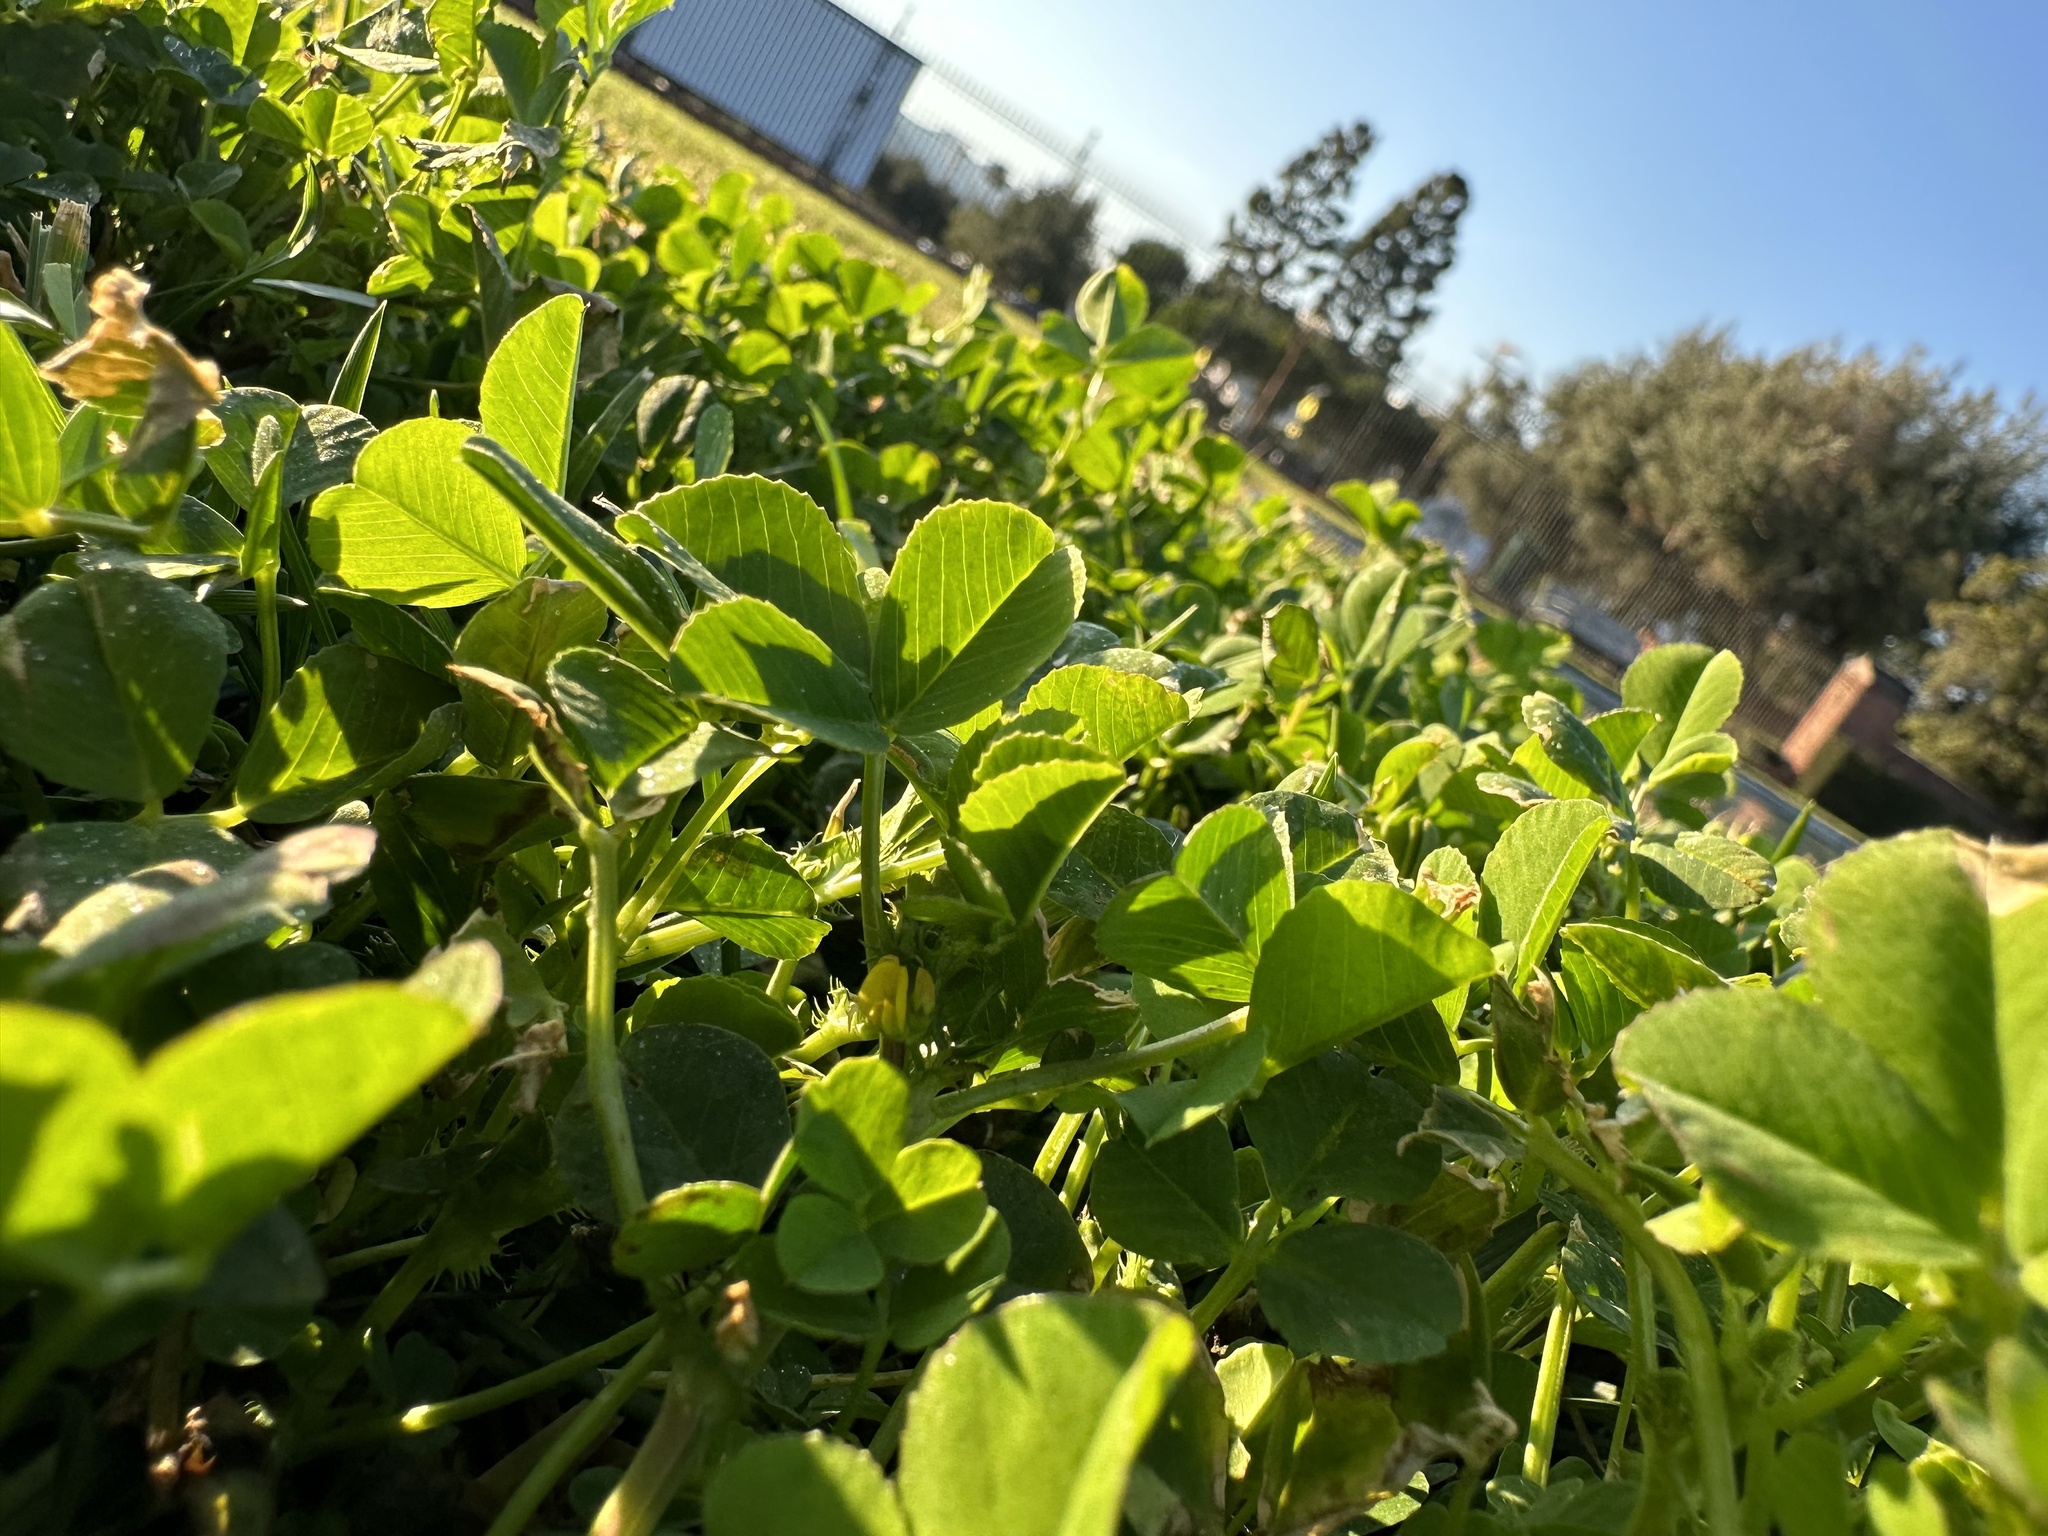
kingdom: Plantae
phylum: Tracheophyta
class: Magnoliopsida
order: Fabales
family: Fabaceae
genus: Medicago
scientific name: Medicago polymorpha
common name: Burclover
